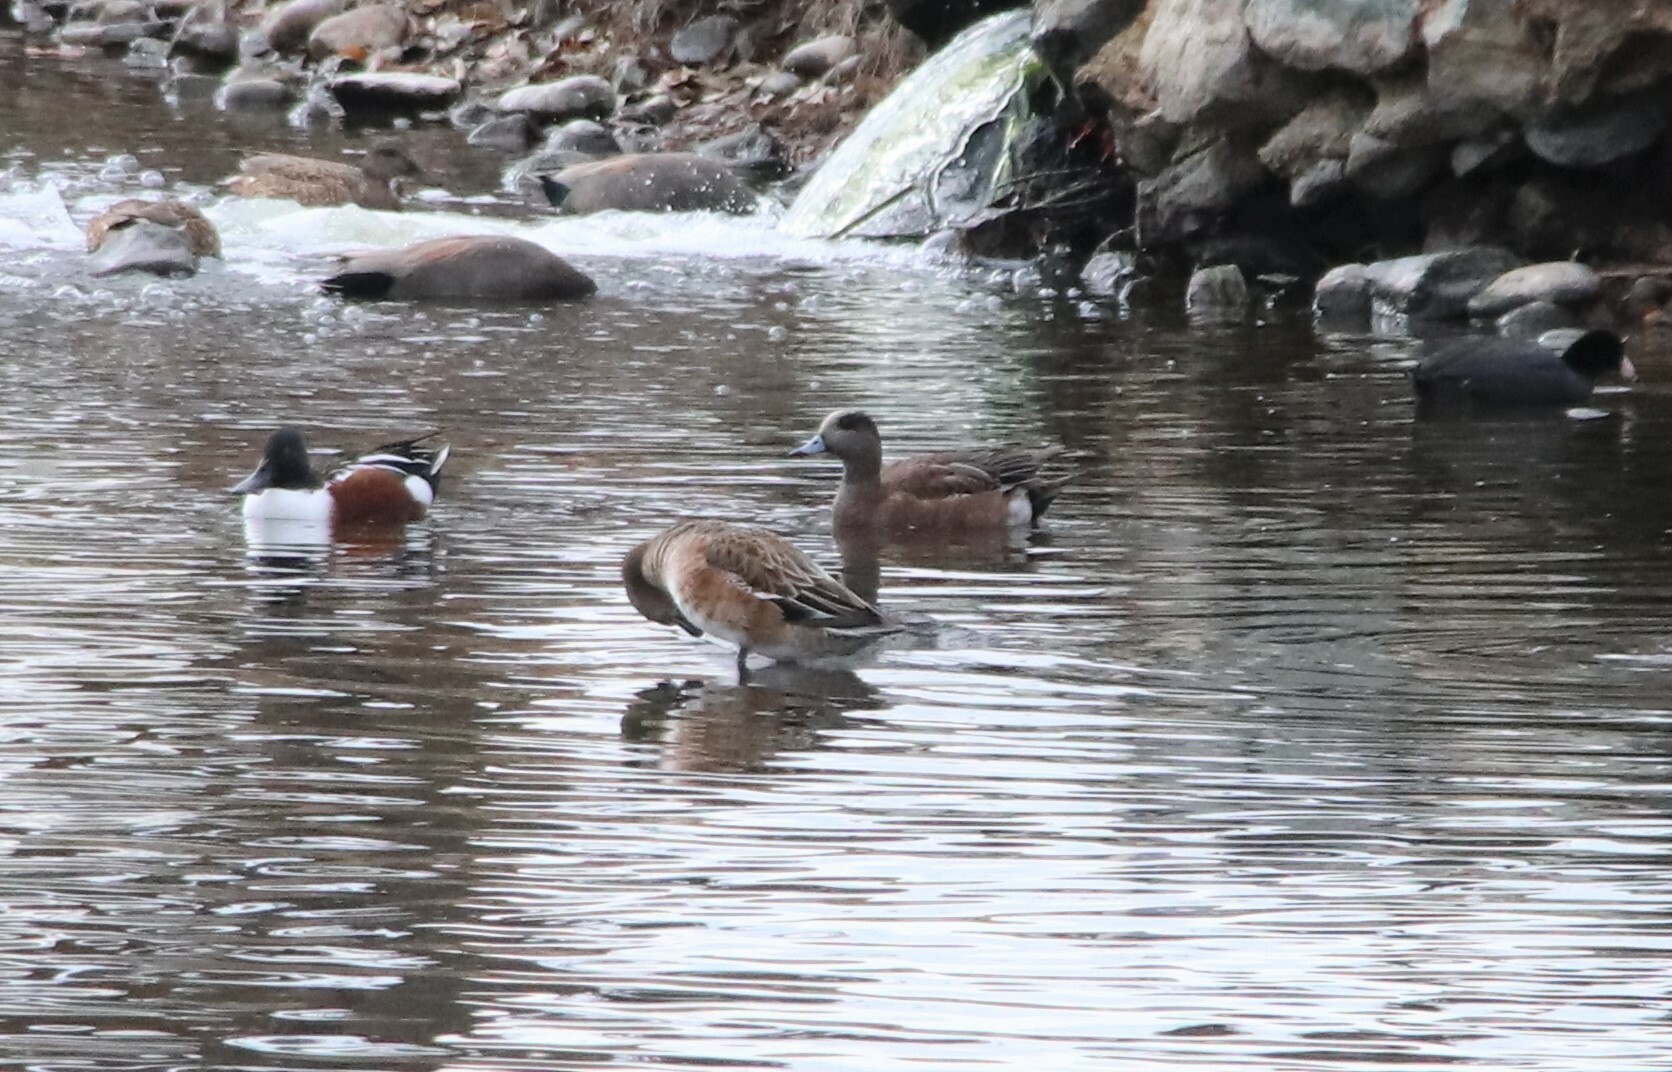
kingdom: Animalia
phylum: Chordata
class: Aves
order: Anseriformes
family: Anatidae
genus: Mareca
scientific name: Mareca americana
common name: American wigeon
